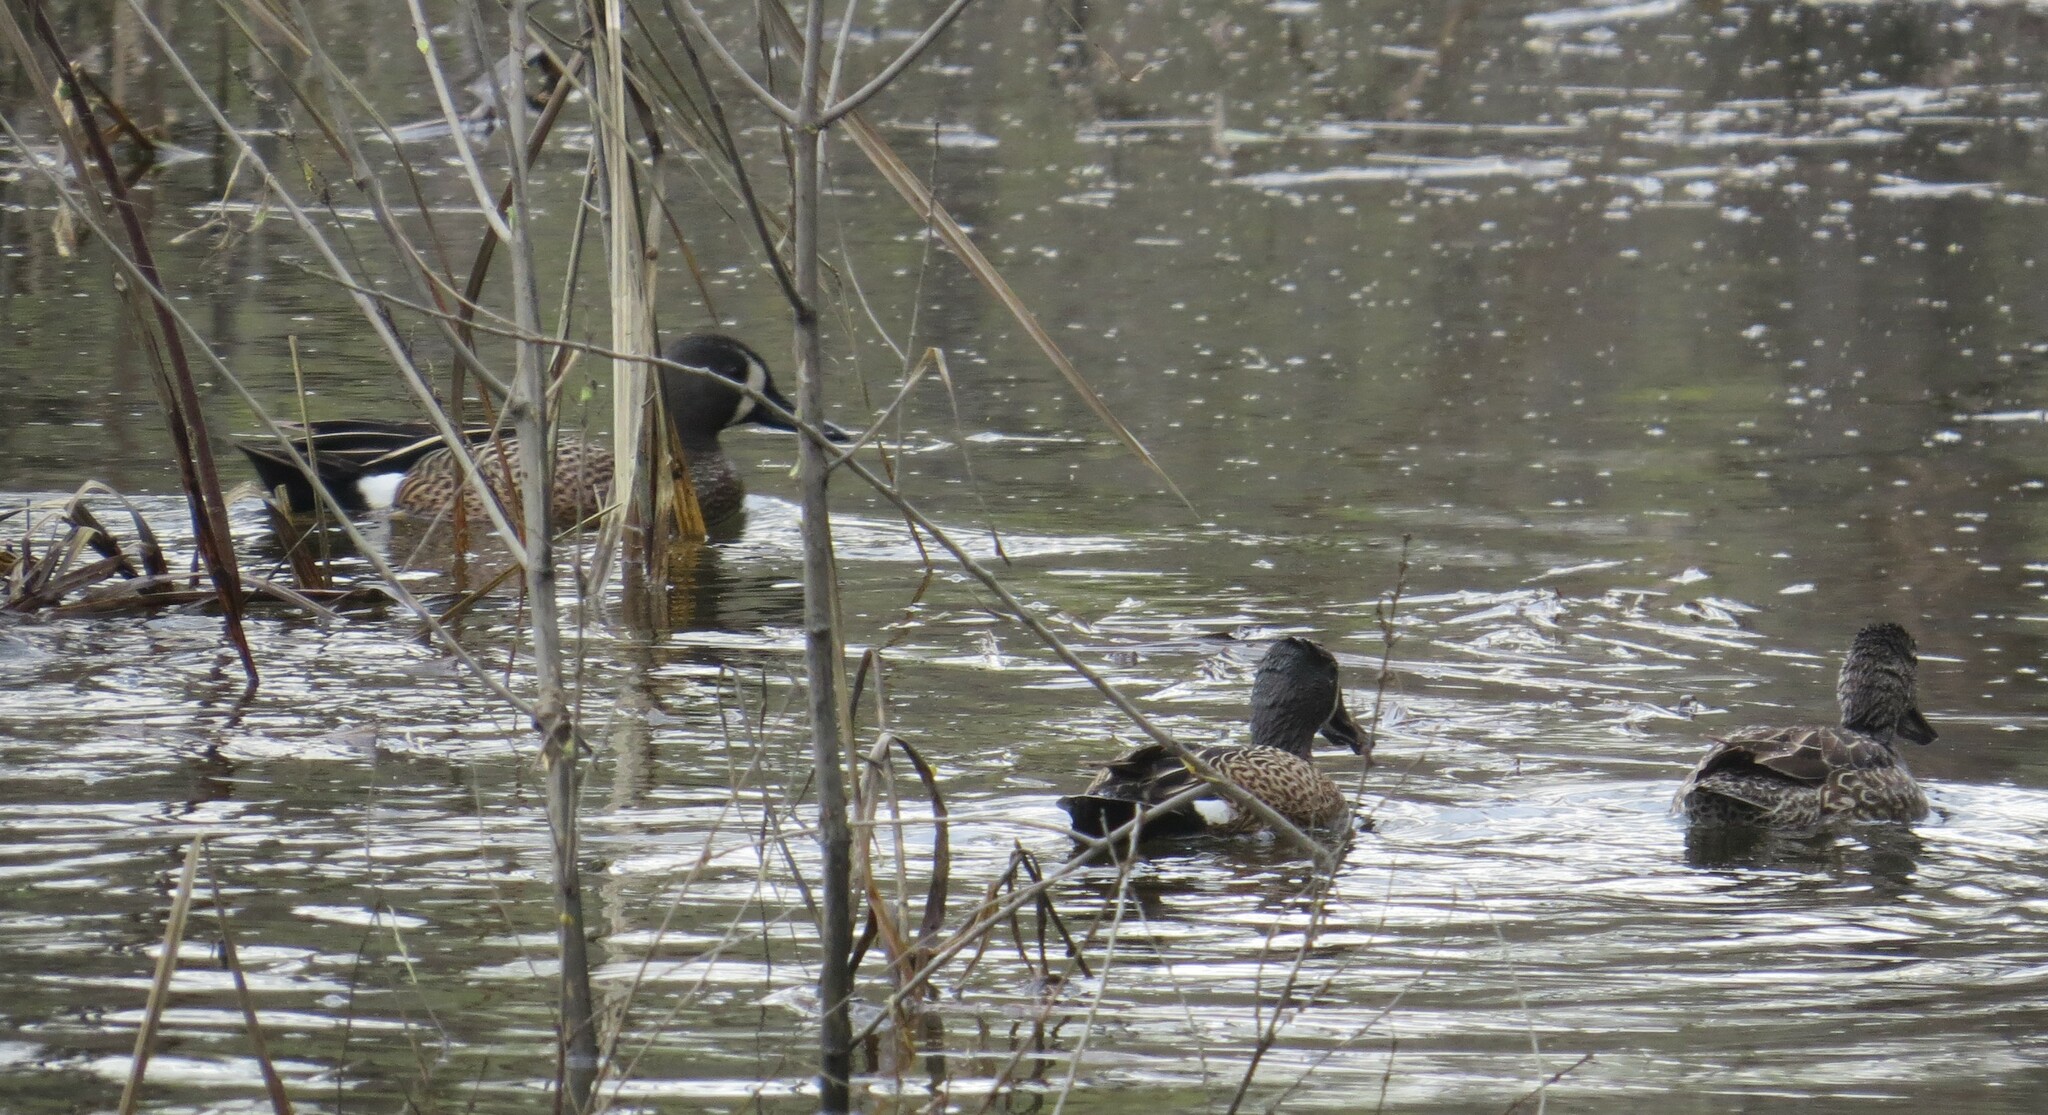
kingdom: Animalia
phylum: Chordata
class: Aves
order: Anseriformes
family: Anatidae
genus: Spatula
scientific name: Spatula discors
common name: Blue-winged teal
